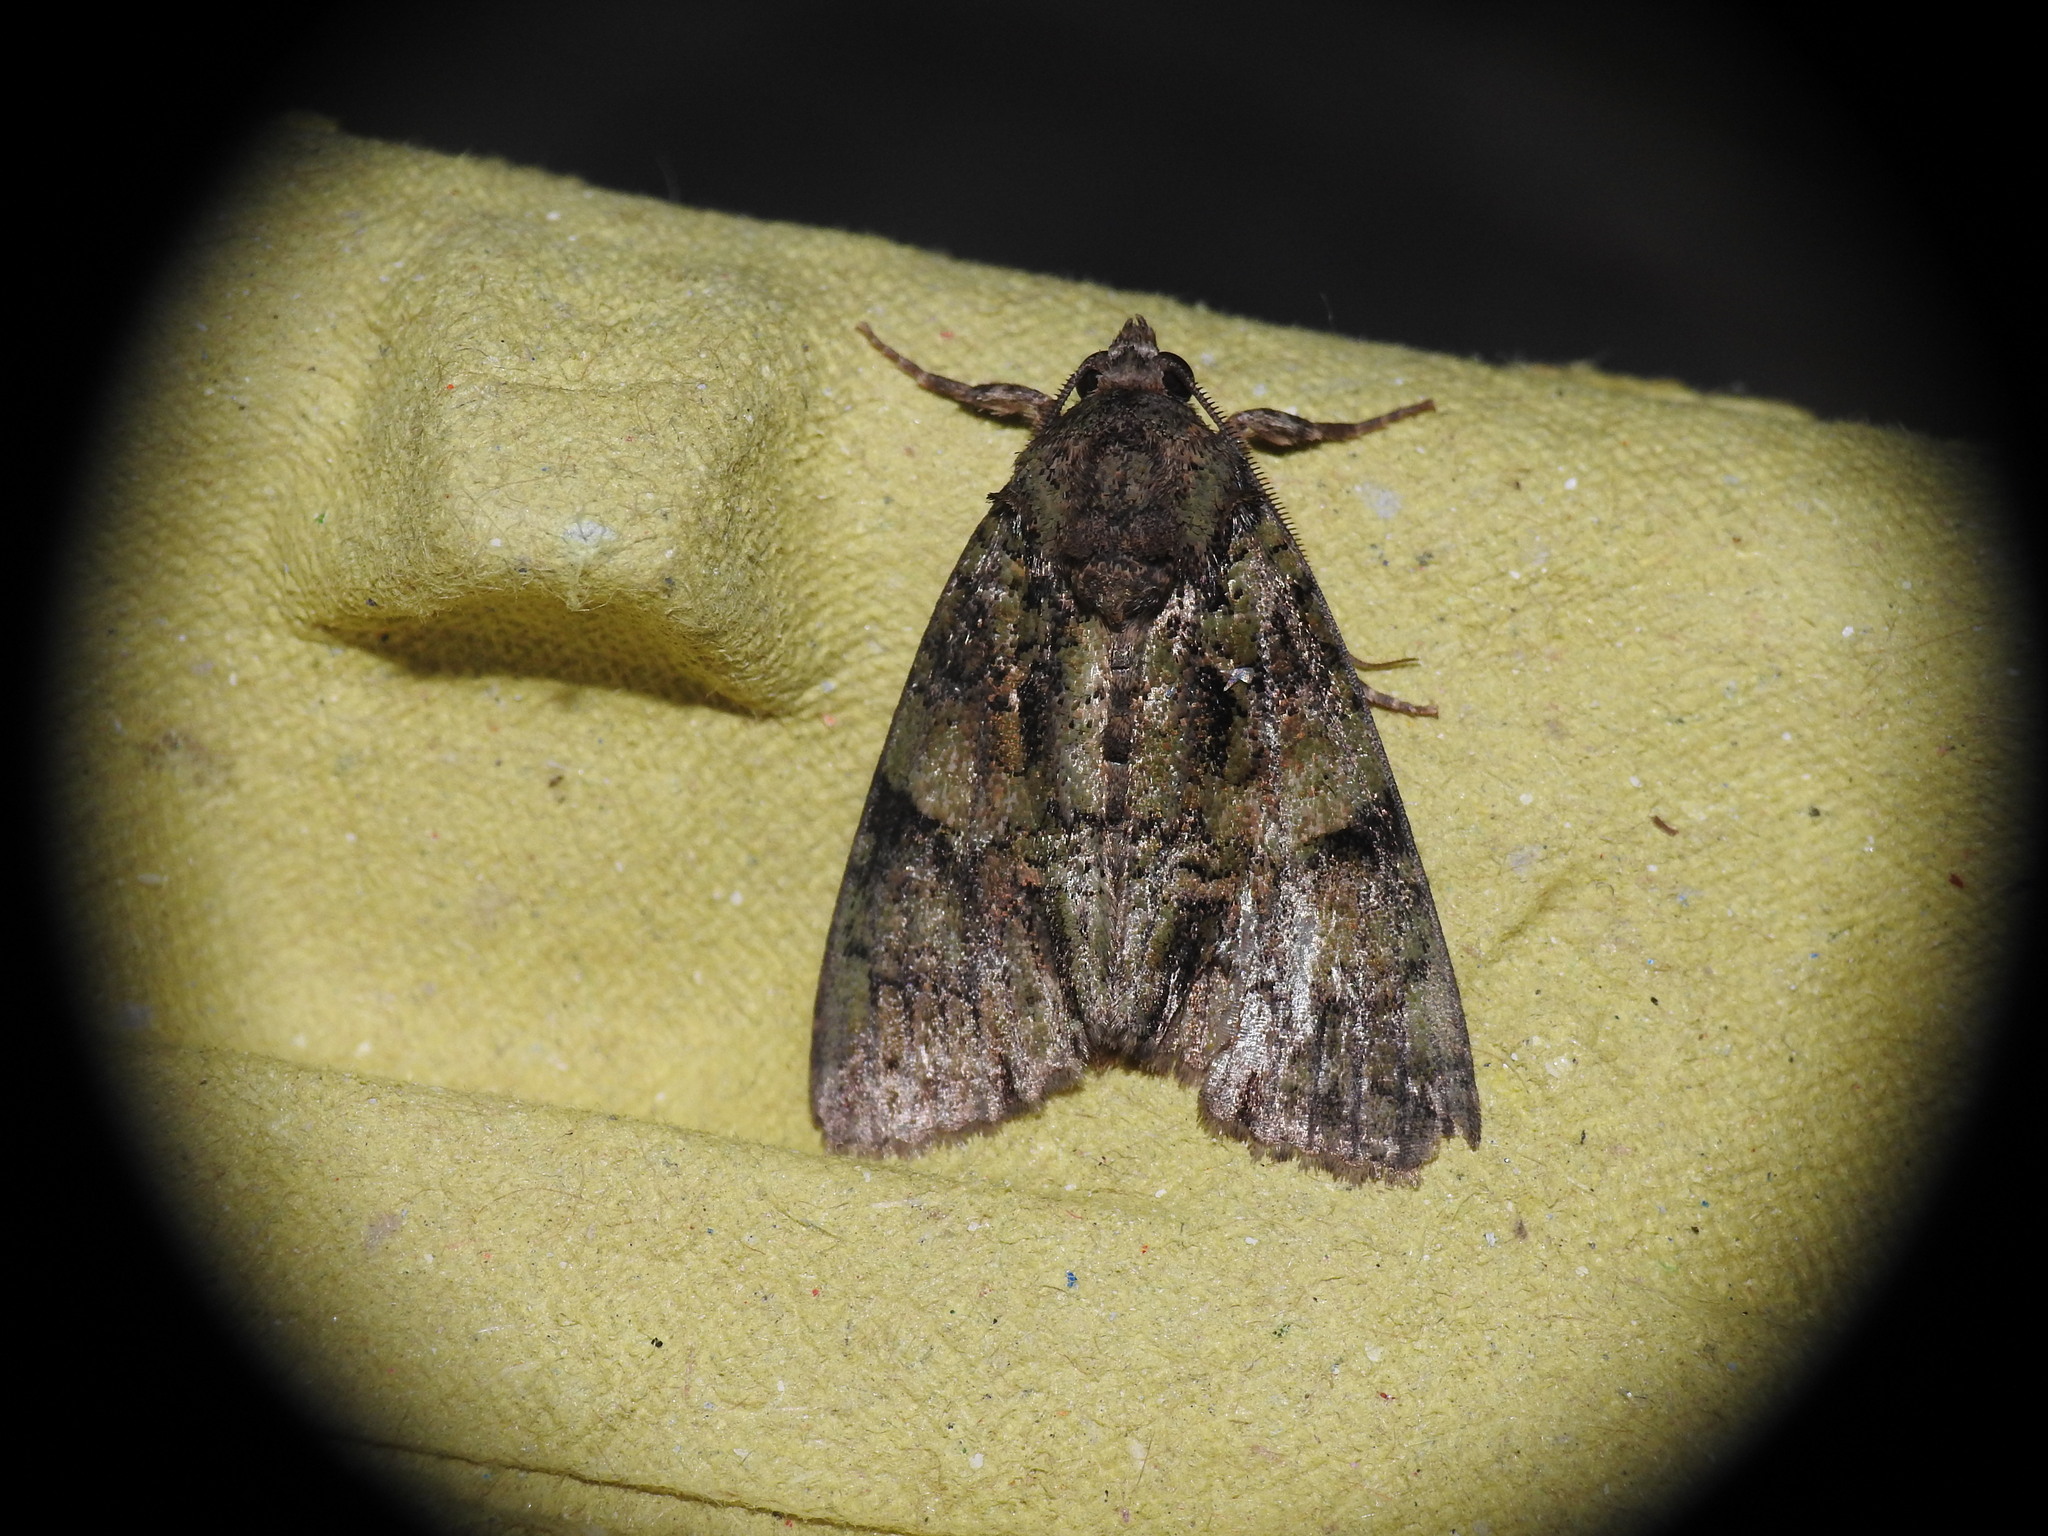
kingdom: Animalia
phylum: Arthropoda
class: Insecta
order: Lepidoptera
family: Noctuidae
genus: Polyphaenis
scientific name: Polyphaenis sericata
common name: Guernsey underwing
